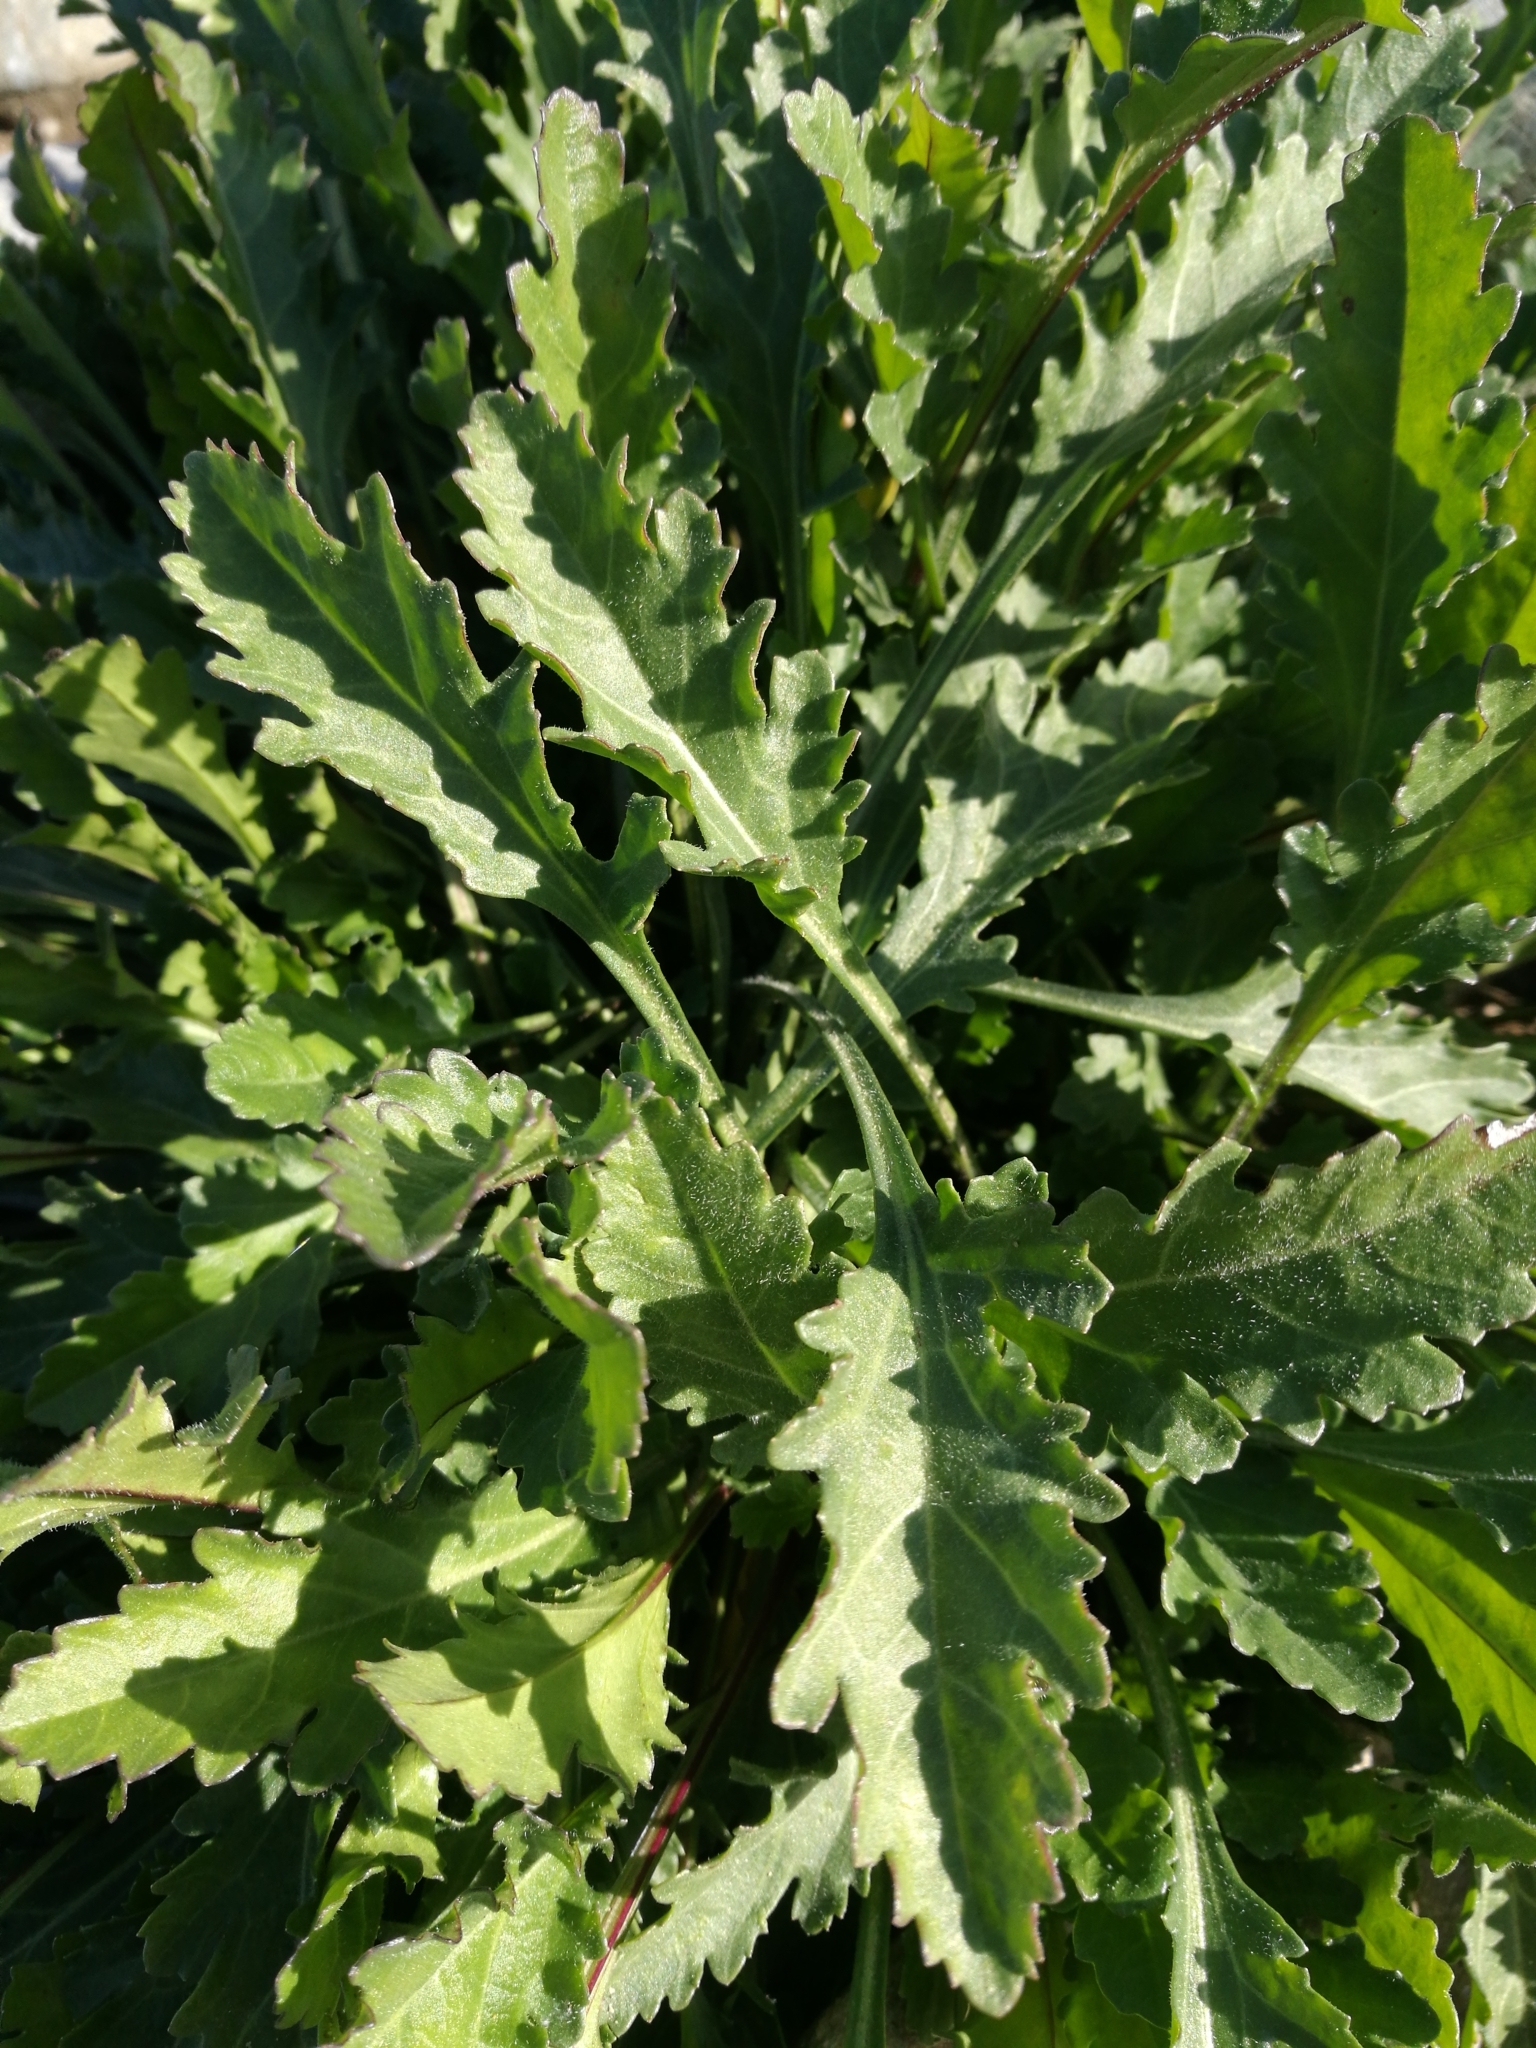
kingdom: Plantae
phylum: Tracheophyta
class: Magnoliopsida
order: Asterales
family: Asteraceae
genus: Leucanthemum
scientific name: Leucanthemum vulgare
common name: Oxeye daisy
